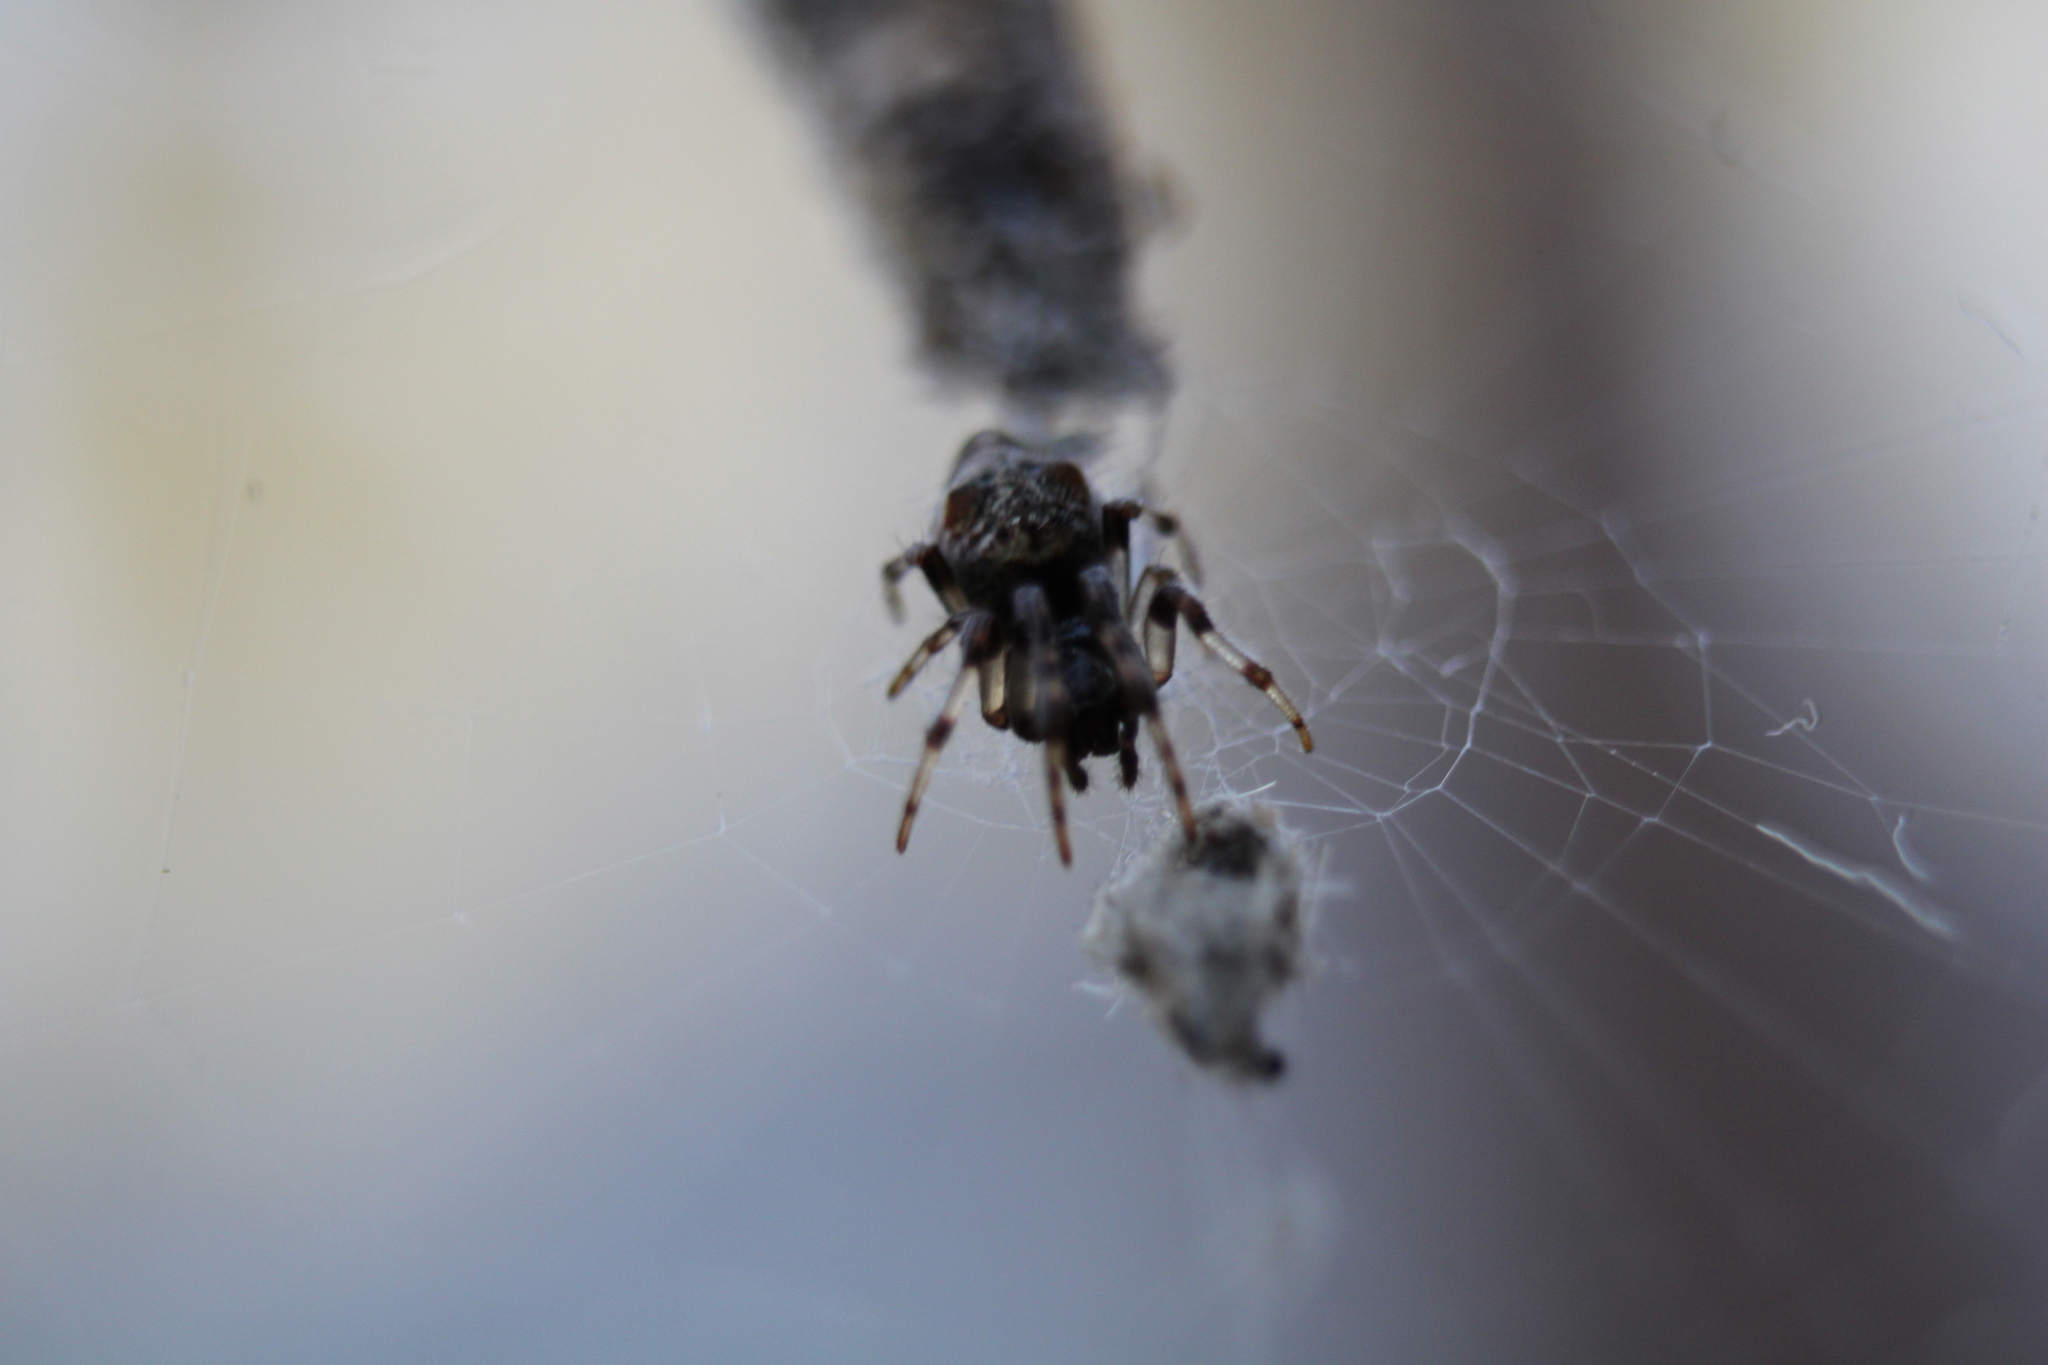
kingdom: Animalia
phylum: Arthropoda
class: Arachnida
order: Araneae
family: Araneidae
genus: Cyclosa
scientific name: Cyclosa turbinata
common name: Orb weavers
